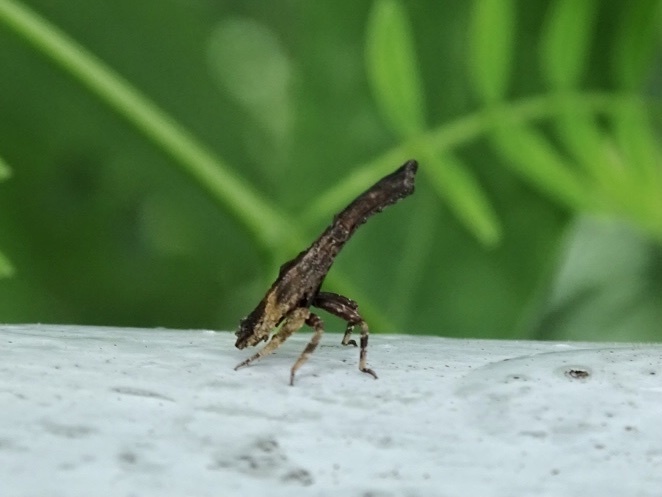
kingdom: Animalia
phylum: Arthropoda
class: Insecta
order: Hemiptera
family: Fulgoridae
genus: Pyrops
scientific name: Pyrops candelaria
